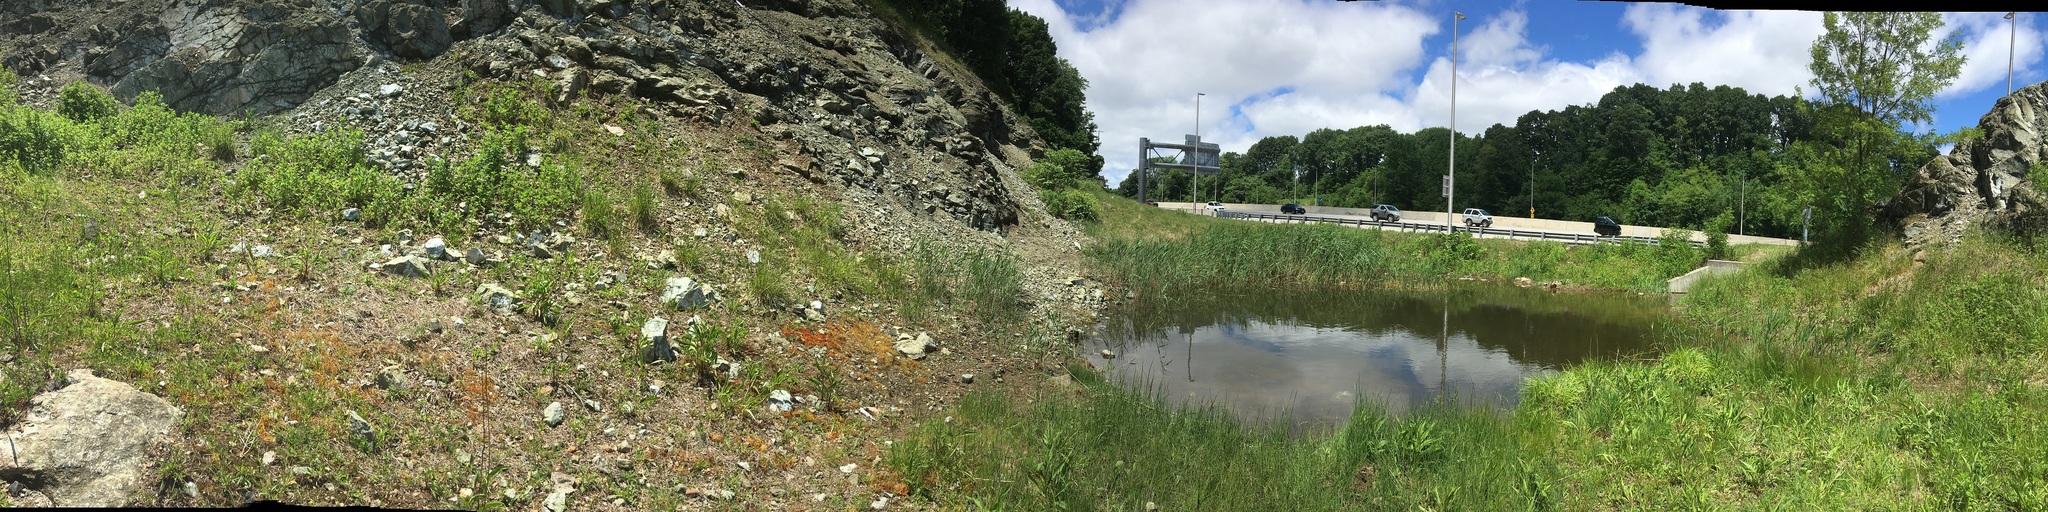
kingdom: Plantae
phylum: Bryophyta
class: Bryopsida
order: Funariales
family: Funariaceae
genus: Funaria
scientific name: Funaria hygrometrica
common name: Common cord moss
